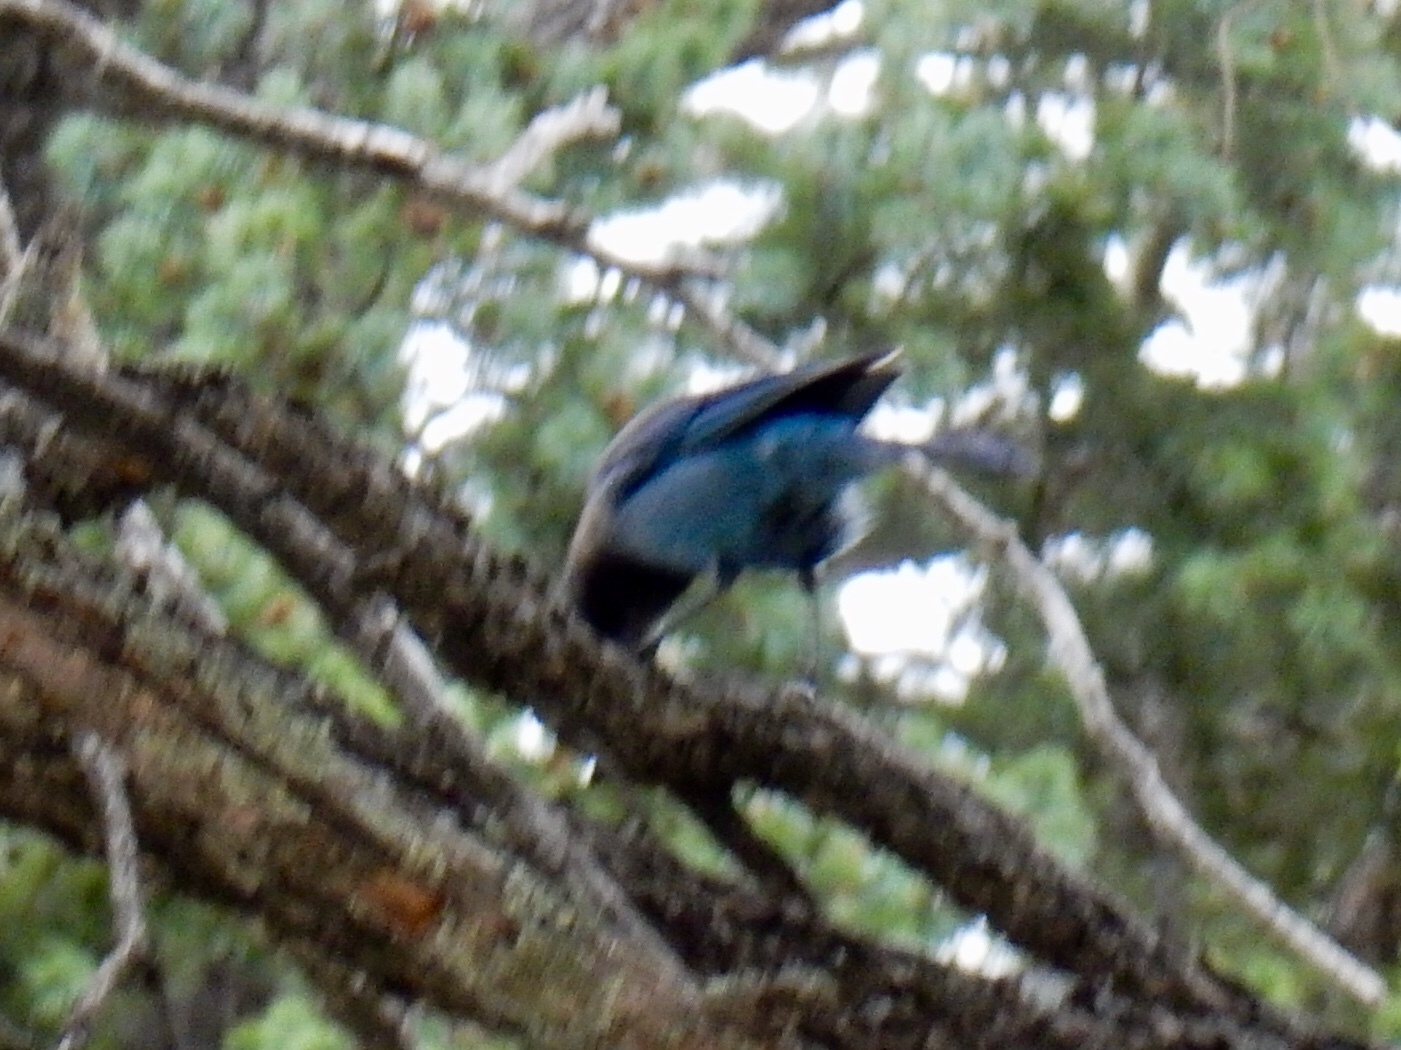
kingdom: Animalia
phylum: Chordata
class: Aves
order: Passeriformes
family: Corvidae
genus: Cyanocitta
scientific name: Cyanocitta stelleri
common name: Steller's jay
